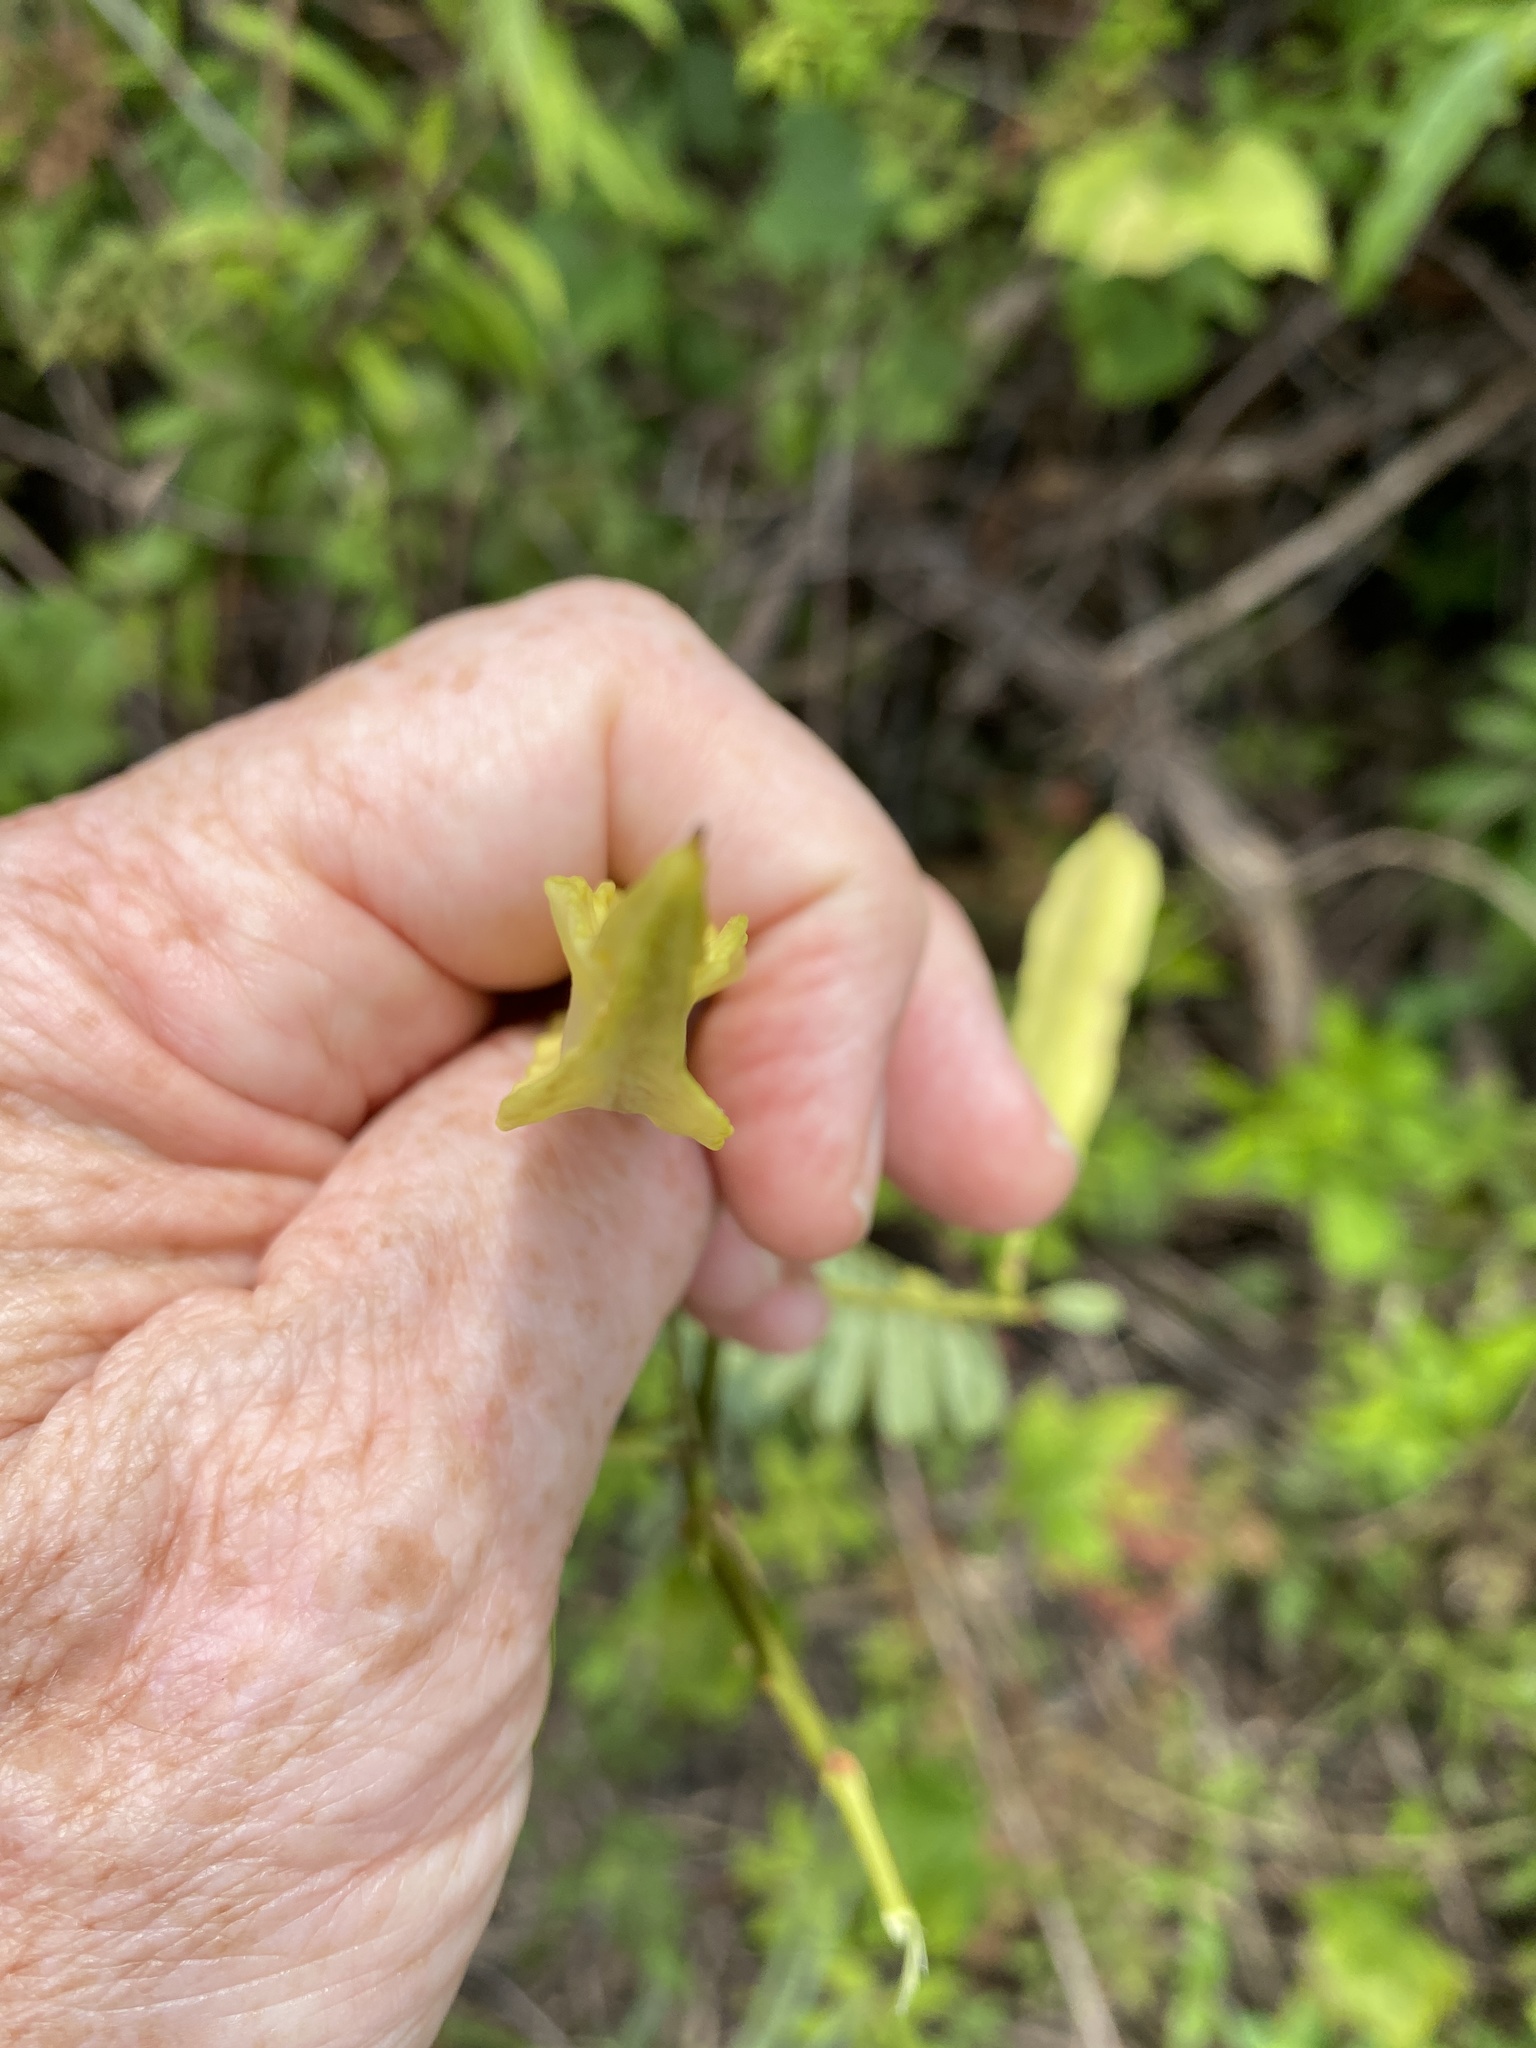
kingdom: Plantae
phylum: Tracheophyta
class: Magnoliopsida
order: Fabales
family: Fabaceae
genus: Sesbania
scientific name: Sesbania punicea
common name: Rattlebox
